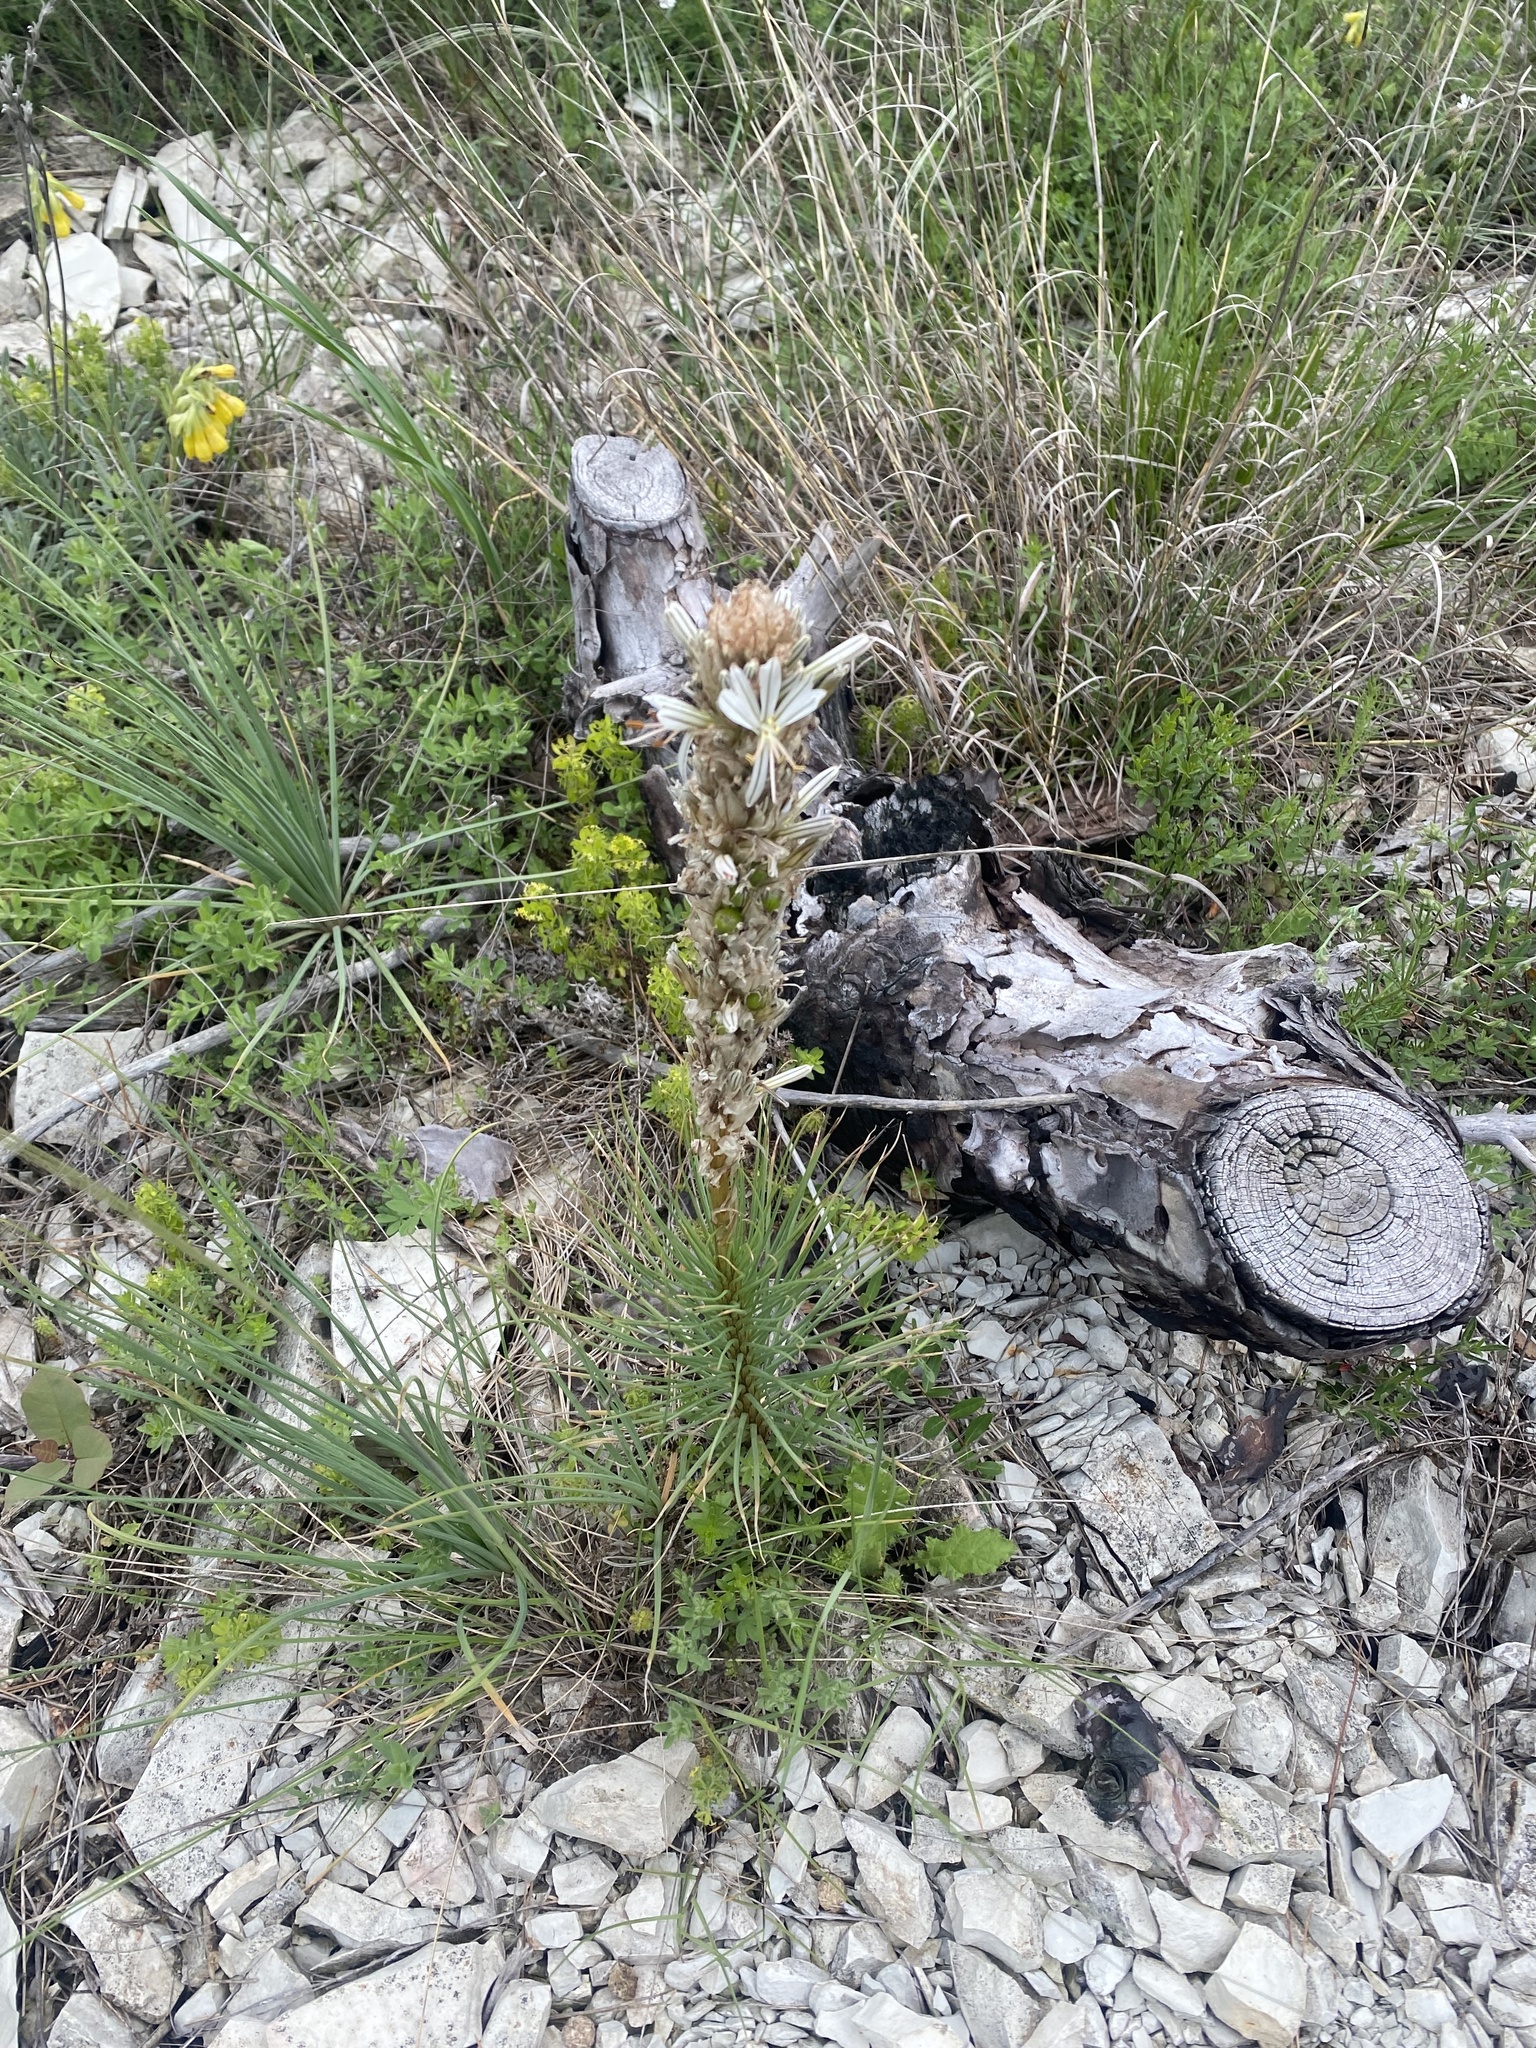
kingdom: Plantae
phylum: Tracheophyta
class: Liliopsida
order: Asparagales
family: Asphodelaceae
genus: Asphodeline
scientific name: Asphodeline taurica
